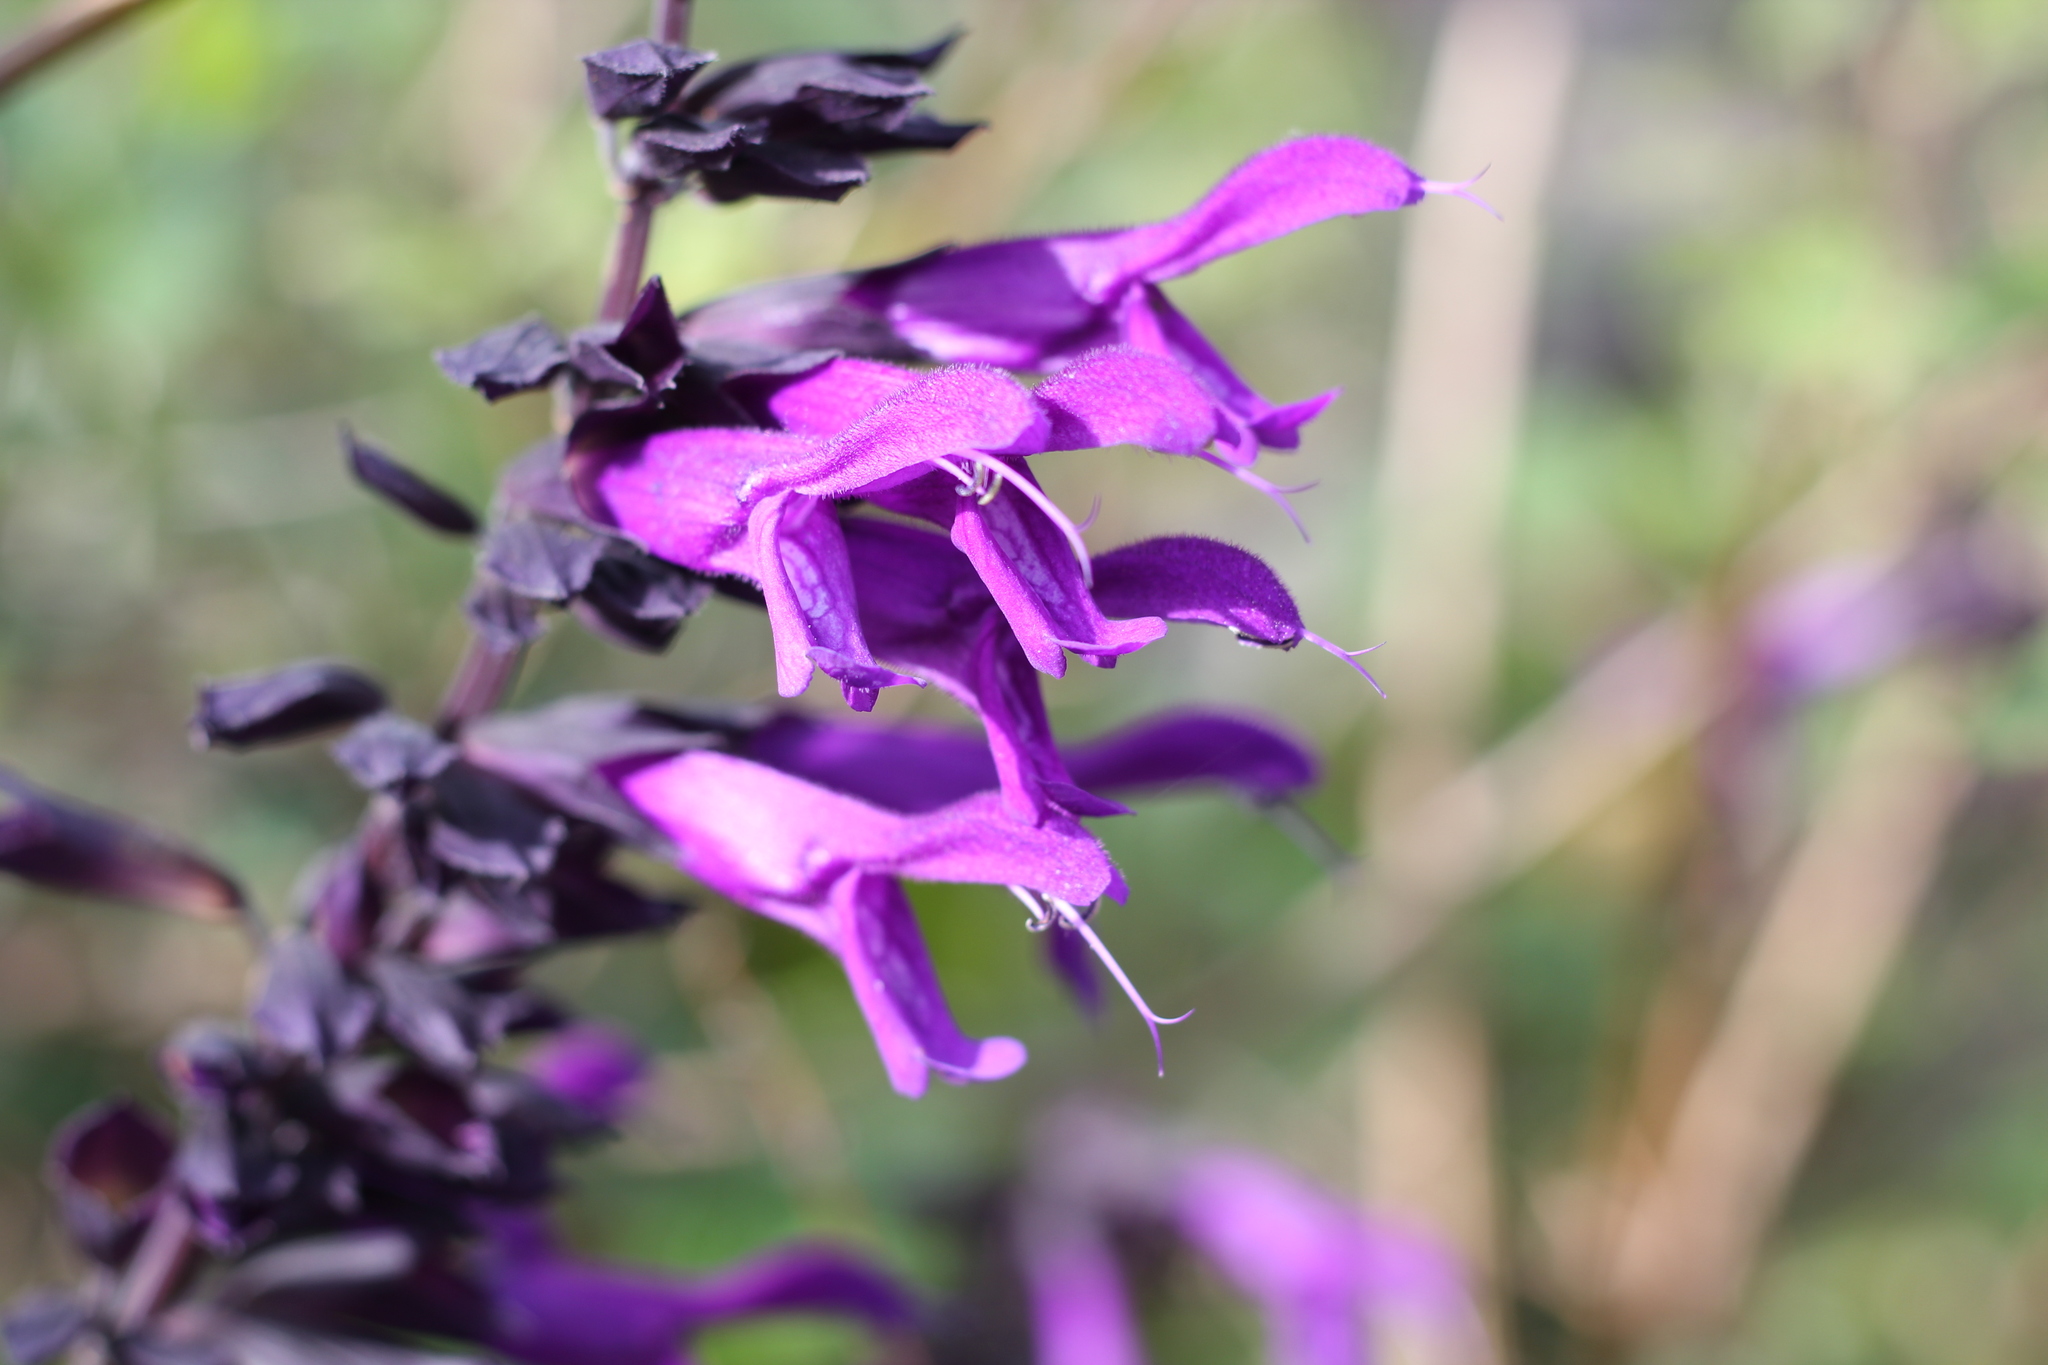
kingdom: Plantae
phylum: Tracheophyta
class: Magnoliopsida
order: Lamiales
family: Lamiaceae
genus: Salvia
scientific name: Salvia guaranitica
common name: Anise-scented sage
